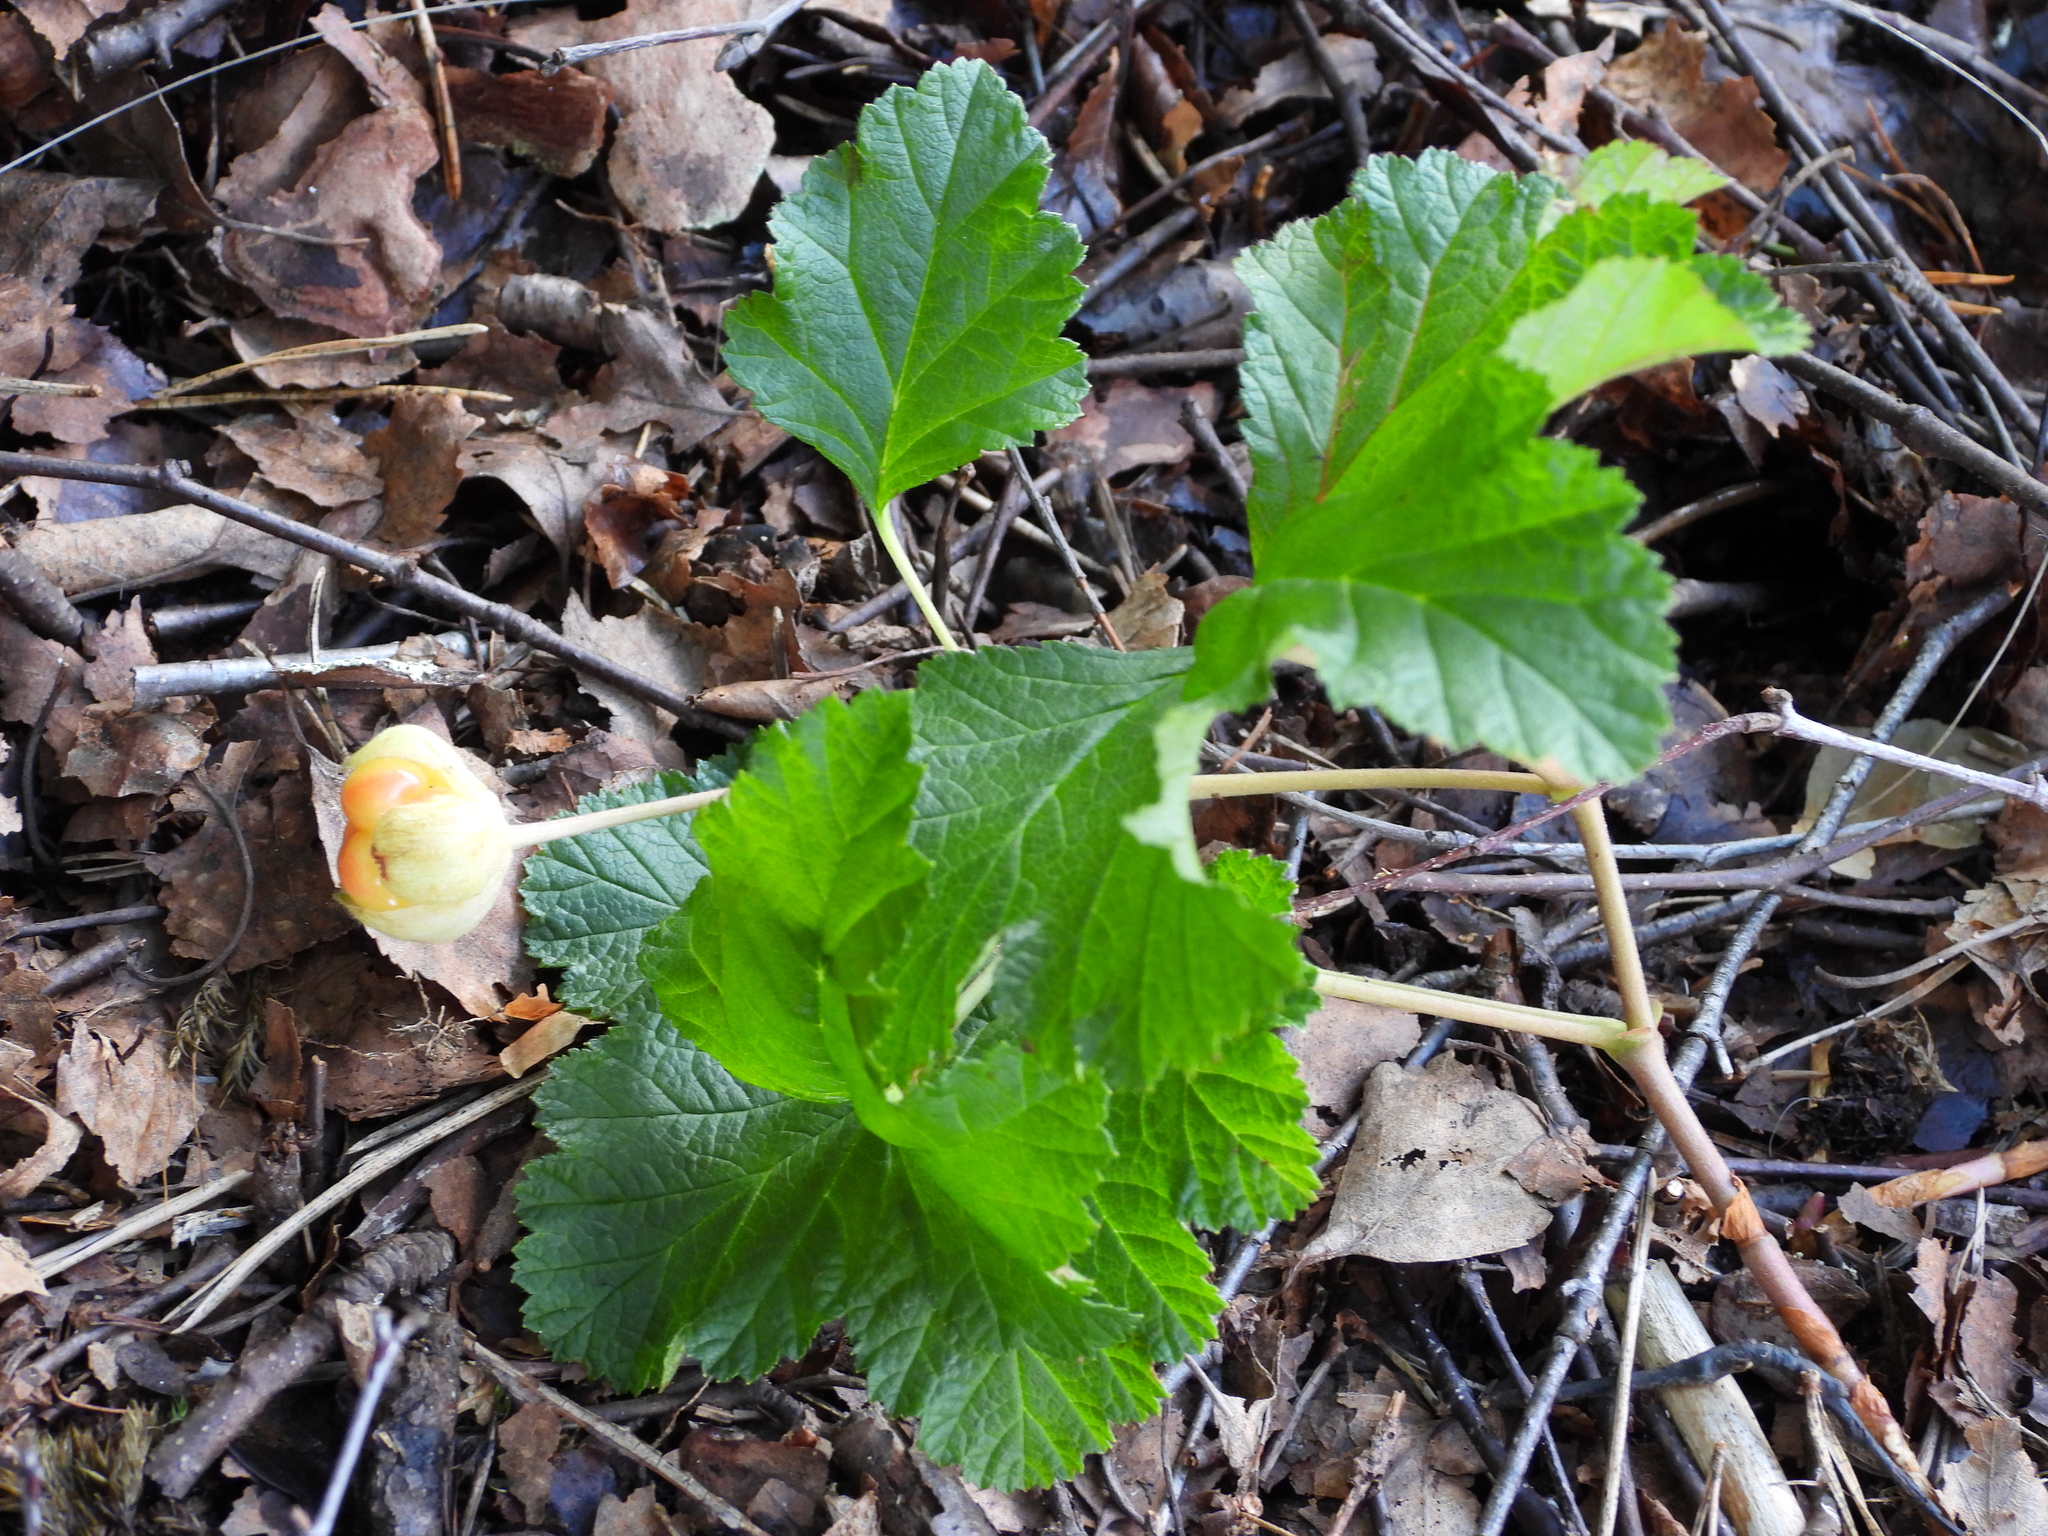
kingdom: Plantae
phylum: Tracheophyta
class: Magnoliopsida
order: Rosales
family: Rosaceae
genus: Rubus
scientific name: Rubus chamaemorus
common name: Cloudberry
